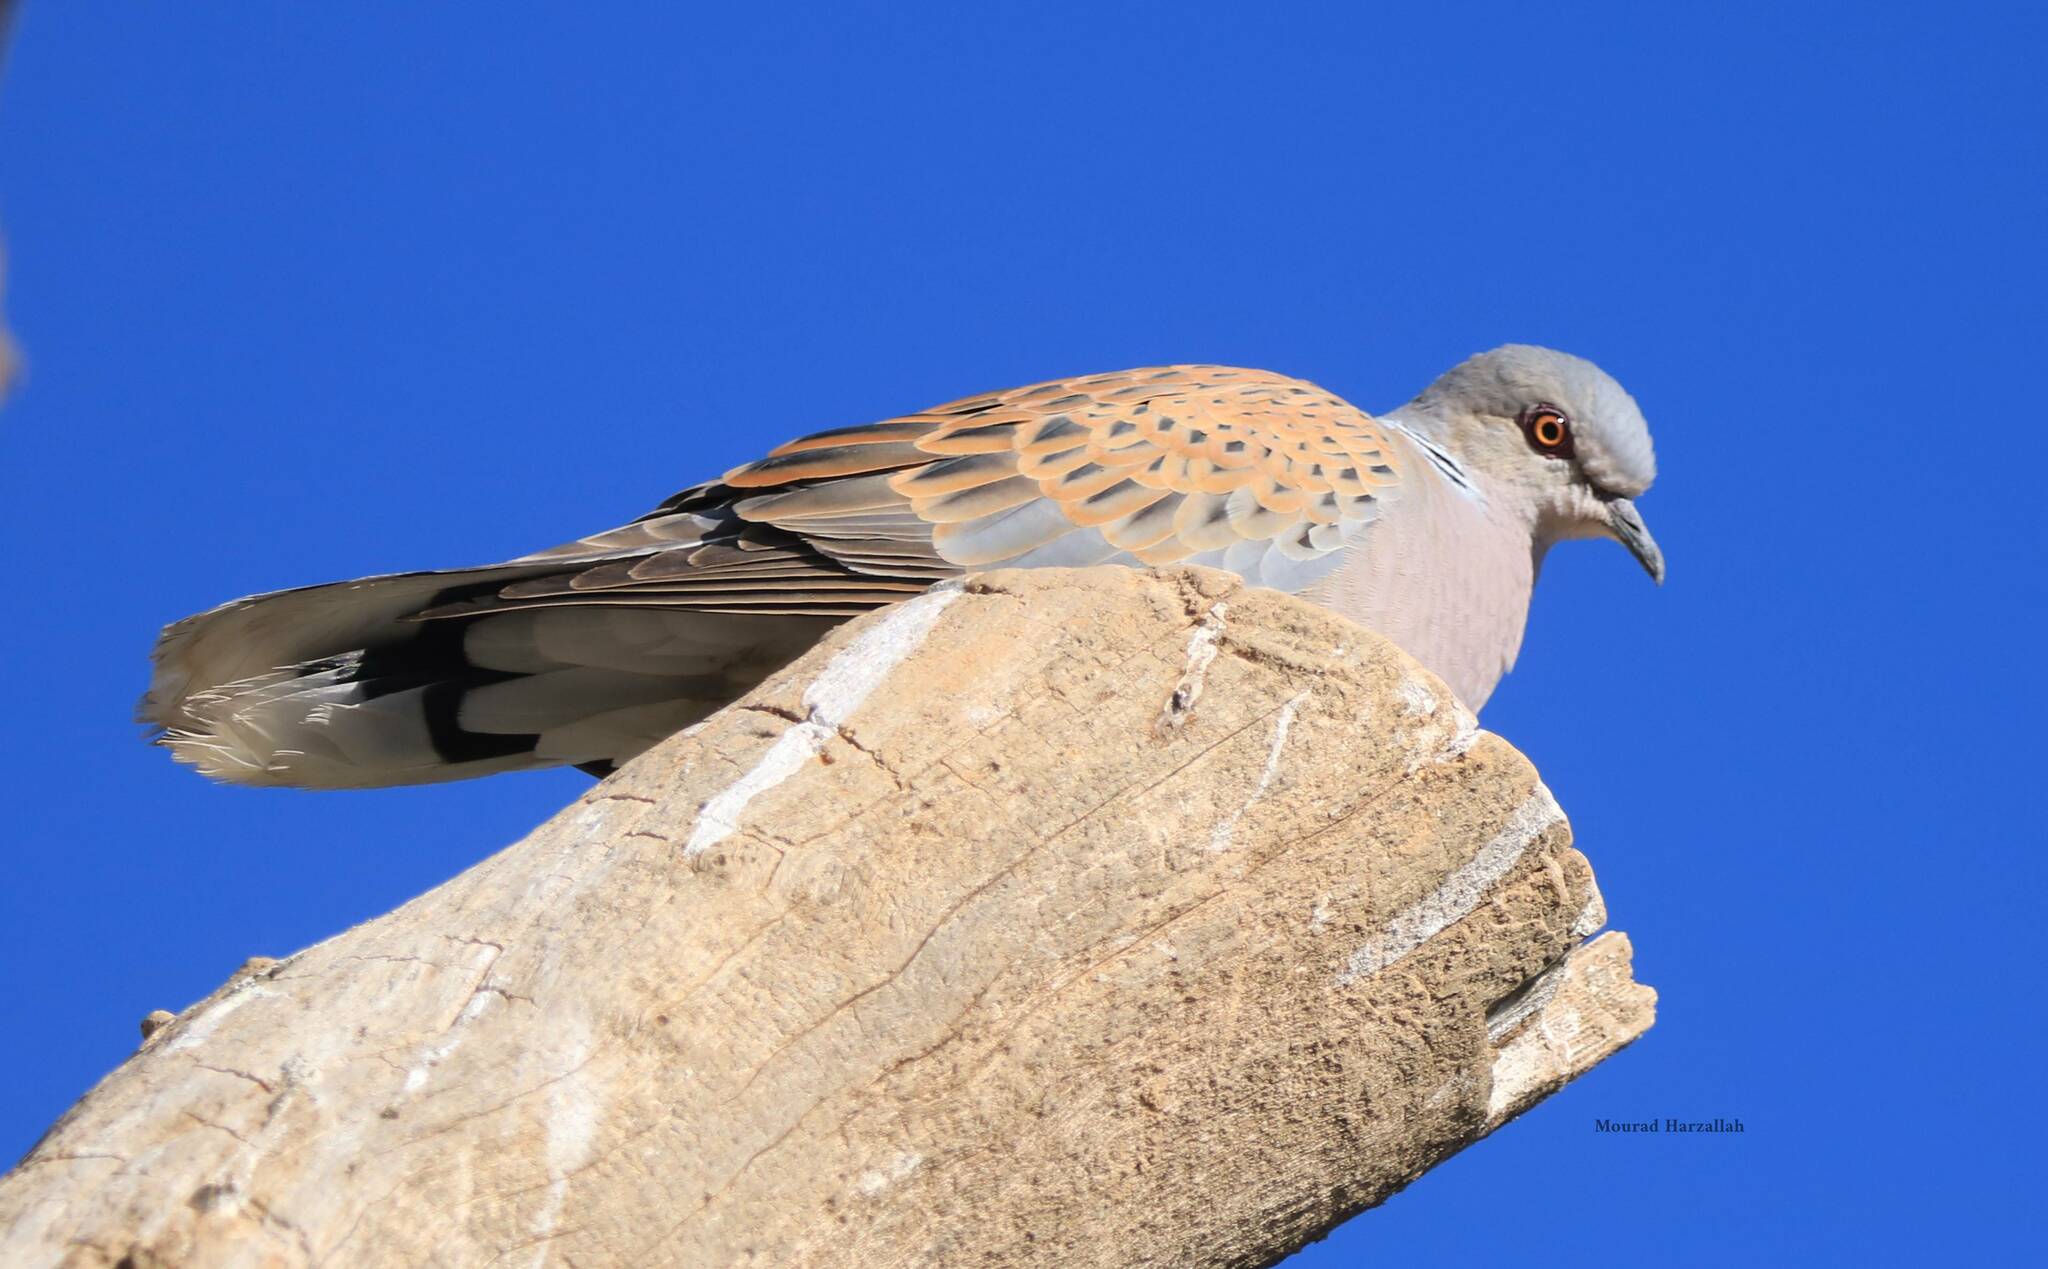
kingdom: Animalia
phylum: Chordata
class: Aves
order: Columbiformes
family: Columbidae
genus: Streptopelia
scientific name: Streptopelia turtur
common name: European turtle dove
